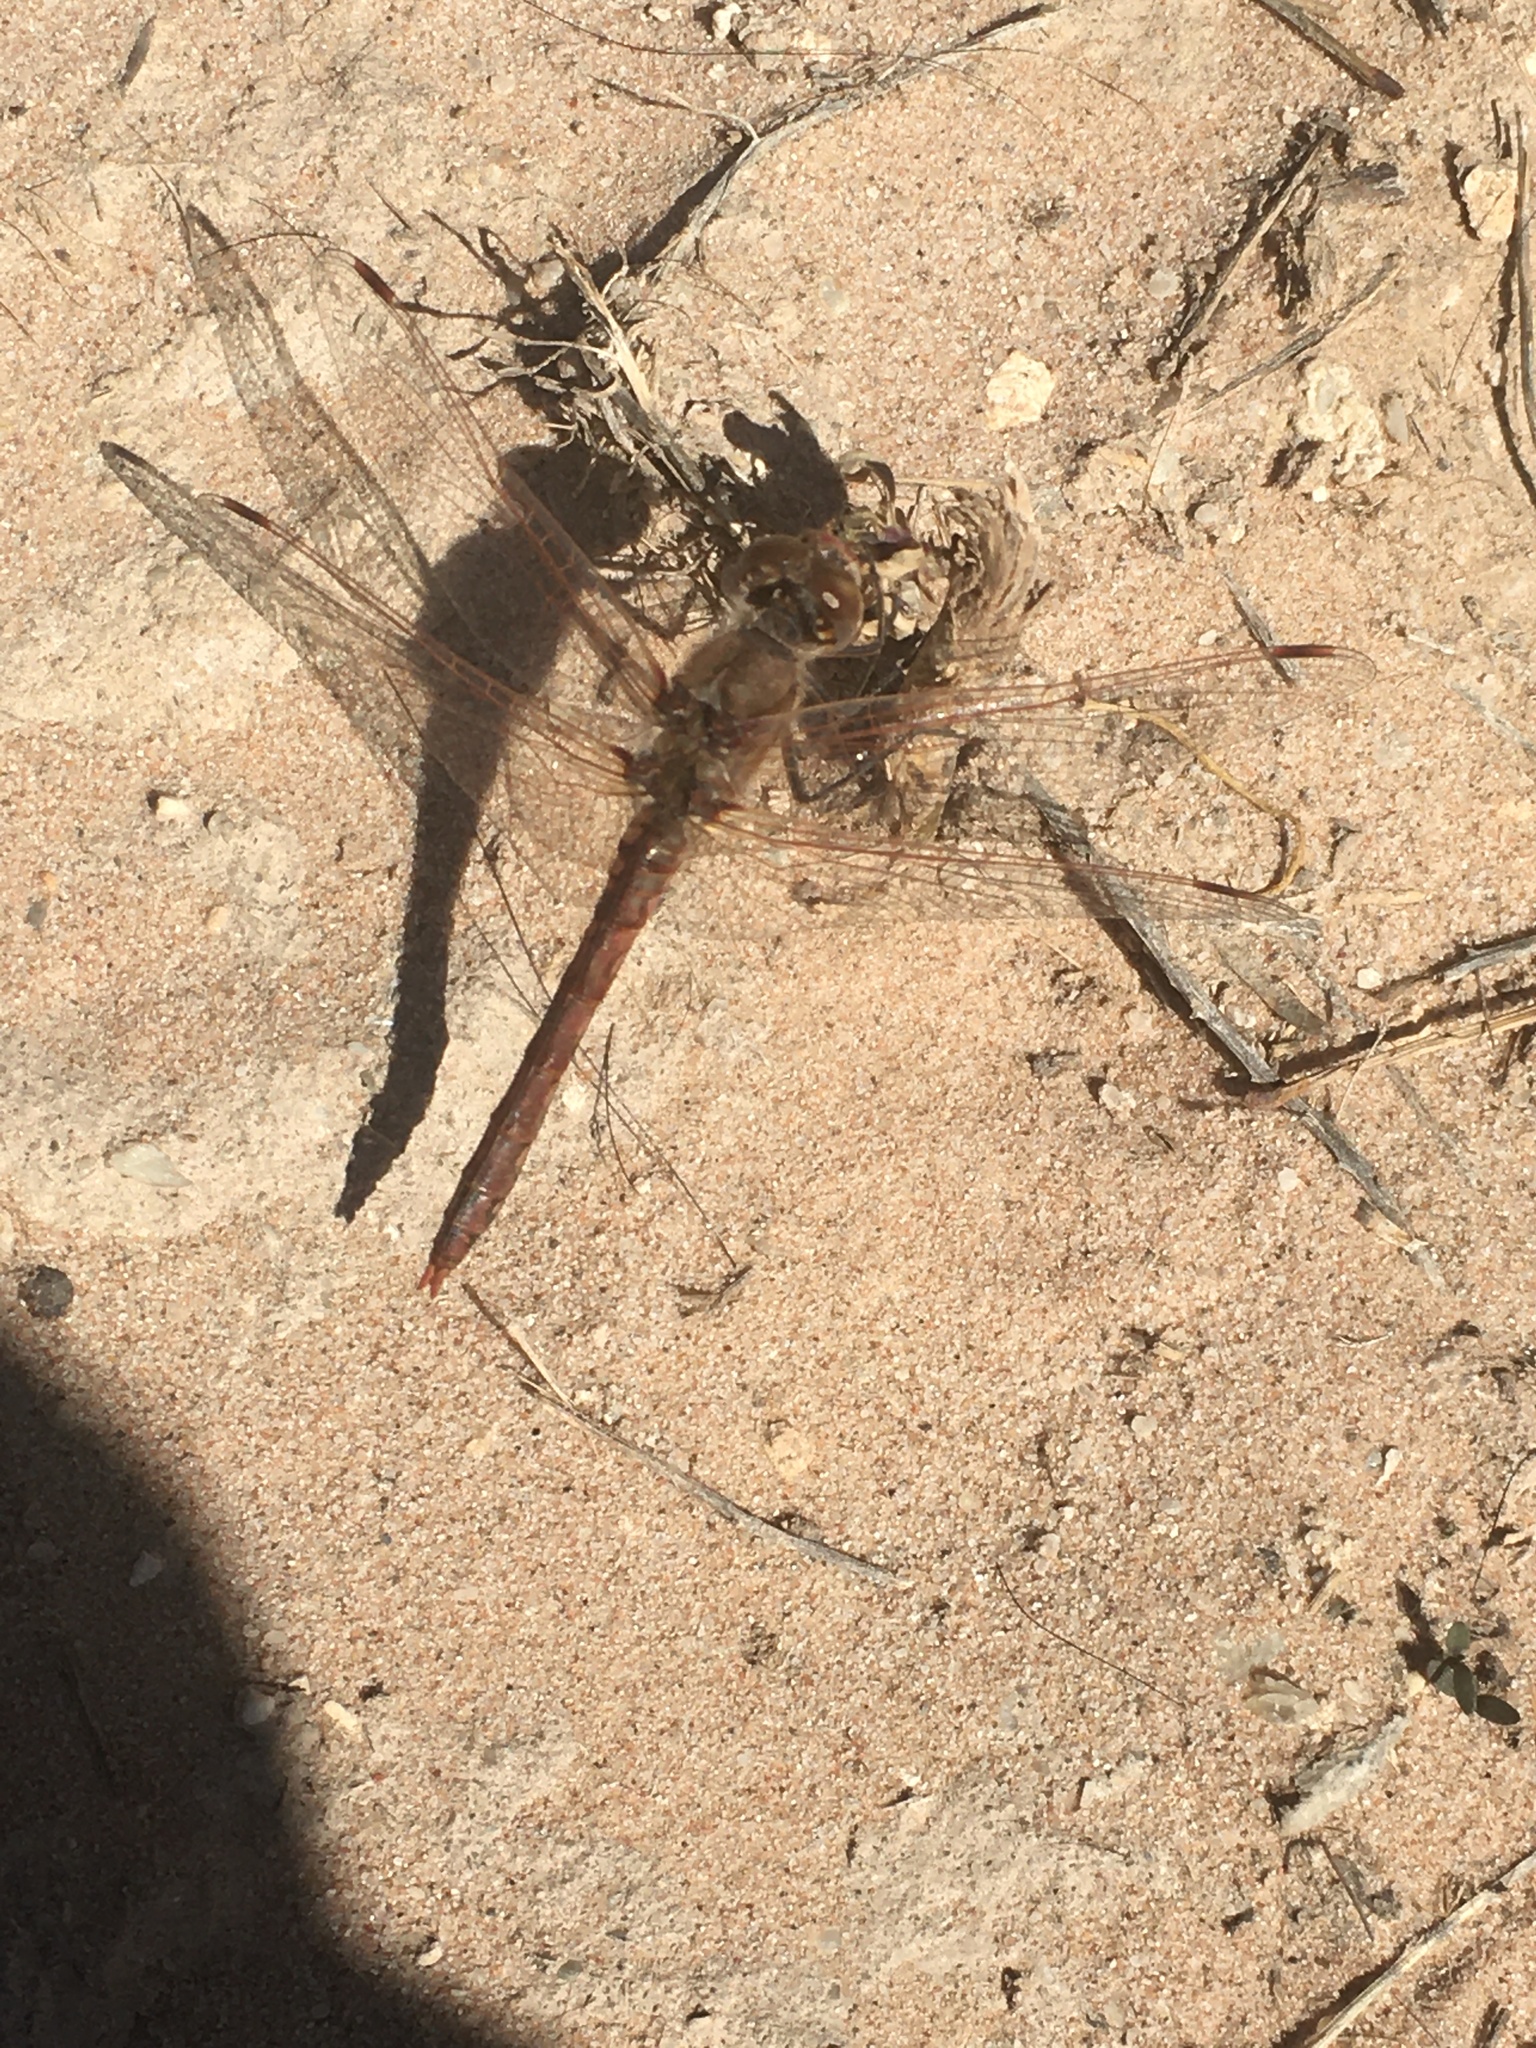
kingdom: Animalia
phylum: Arthropoda
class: Insecta
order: Odonata
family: Libellulidae
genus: Sympetrum
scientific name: Sympetrum corruptum
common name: Variegated meadowhawk
